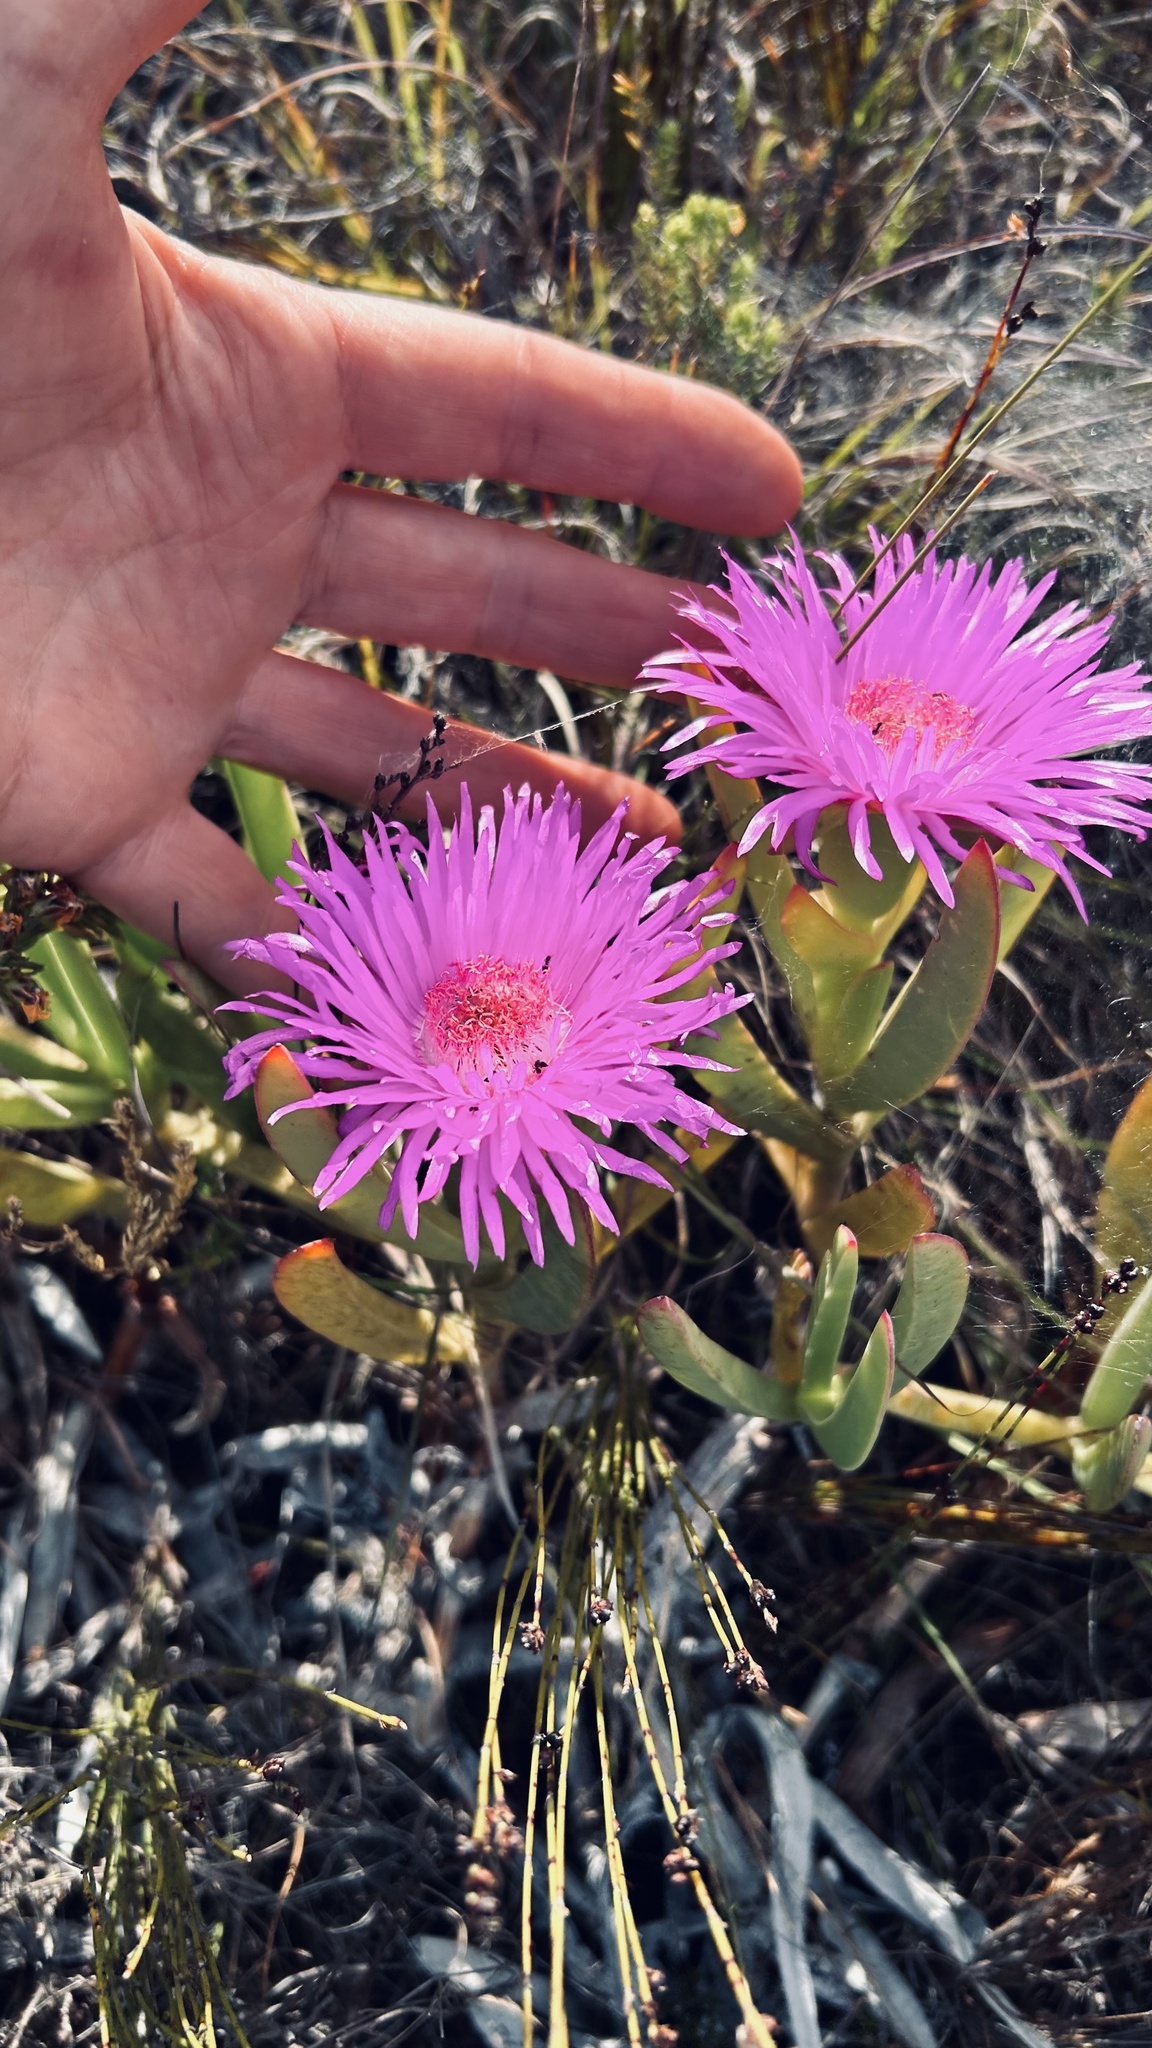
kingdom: Plantae
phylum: Tracheophyta
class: Magnoliopsida
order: Caryophyllales
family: Aizoaceae
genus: Carpobrotus
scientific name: Carpobrotus acinaciformis
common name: Sally-my-handsome
